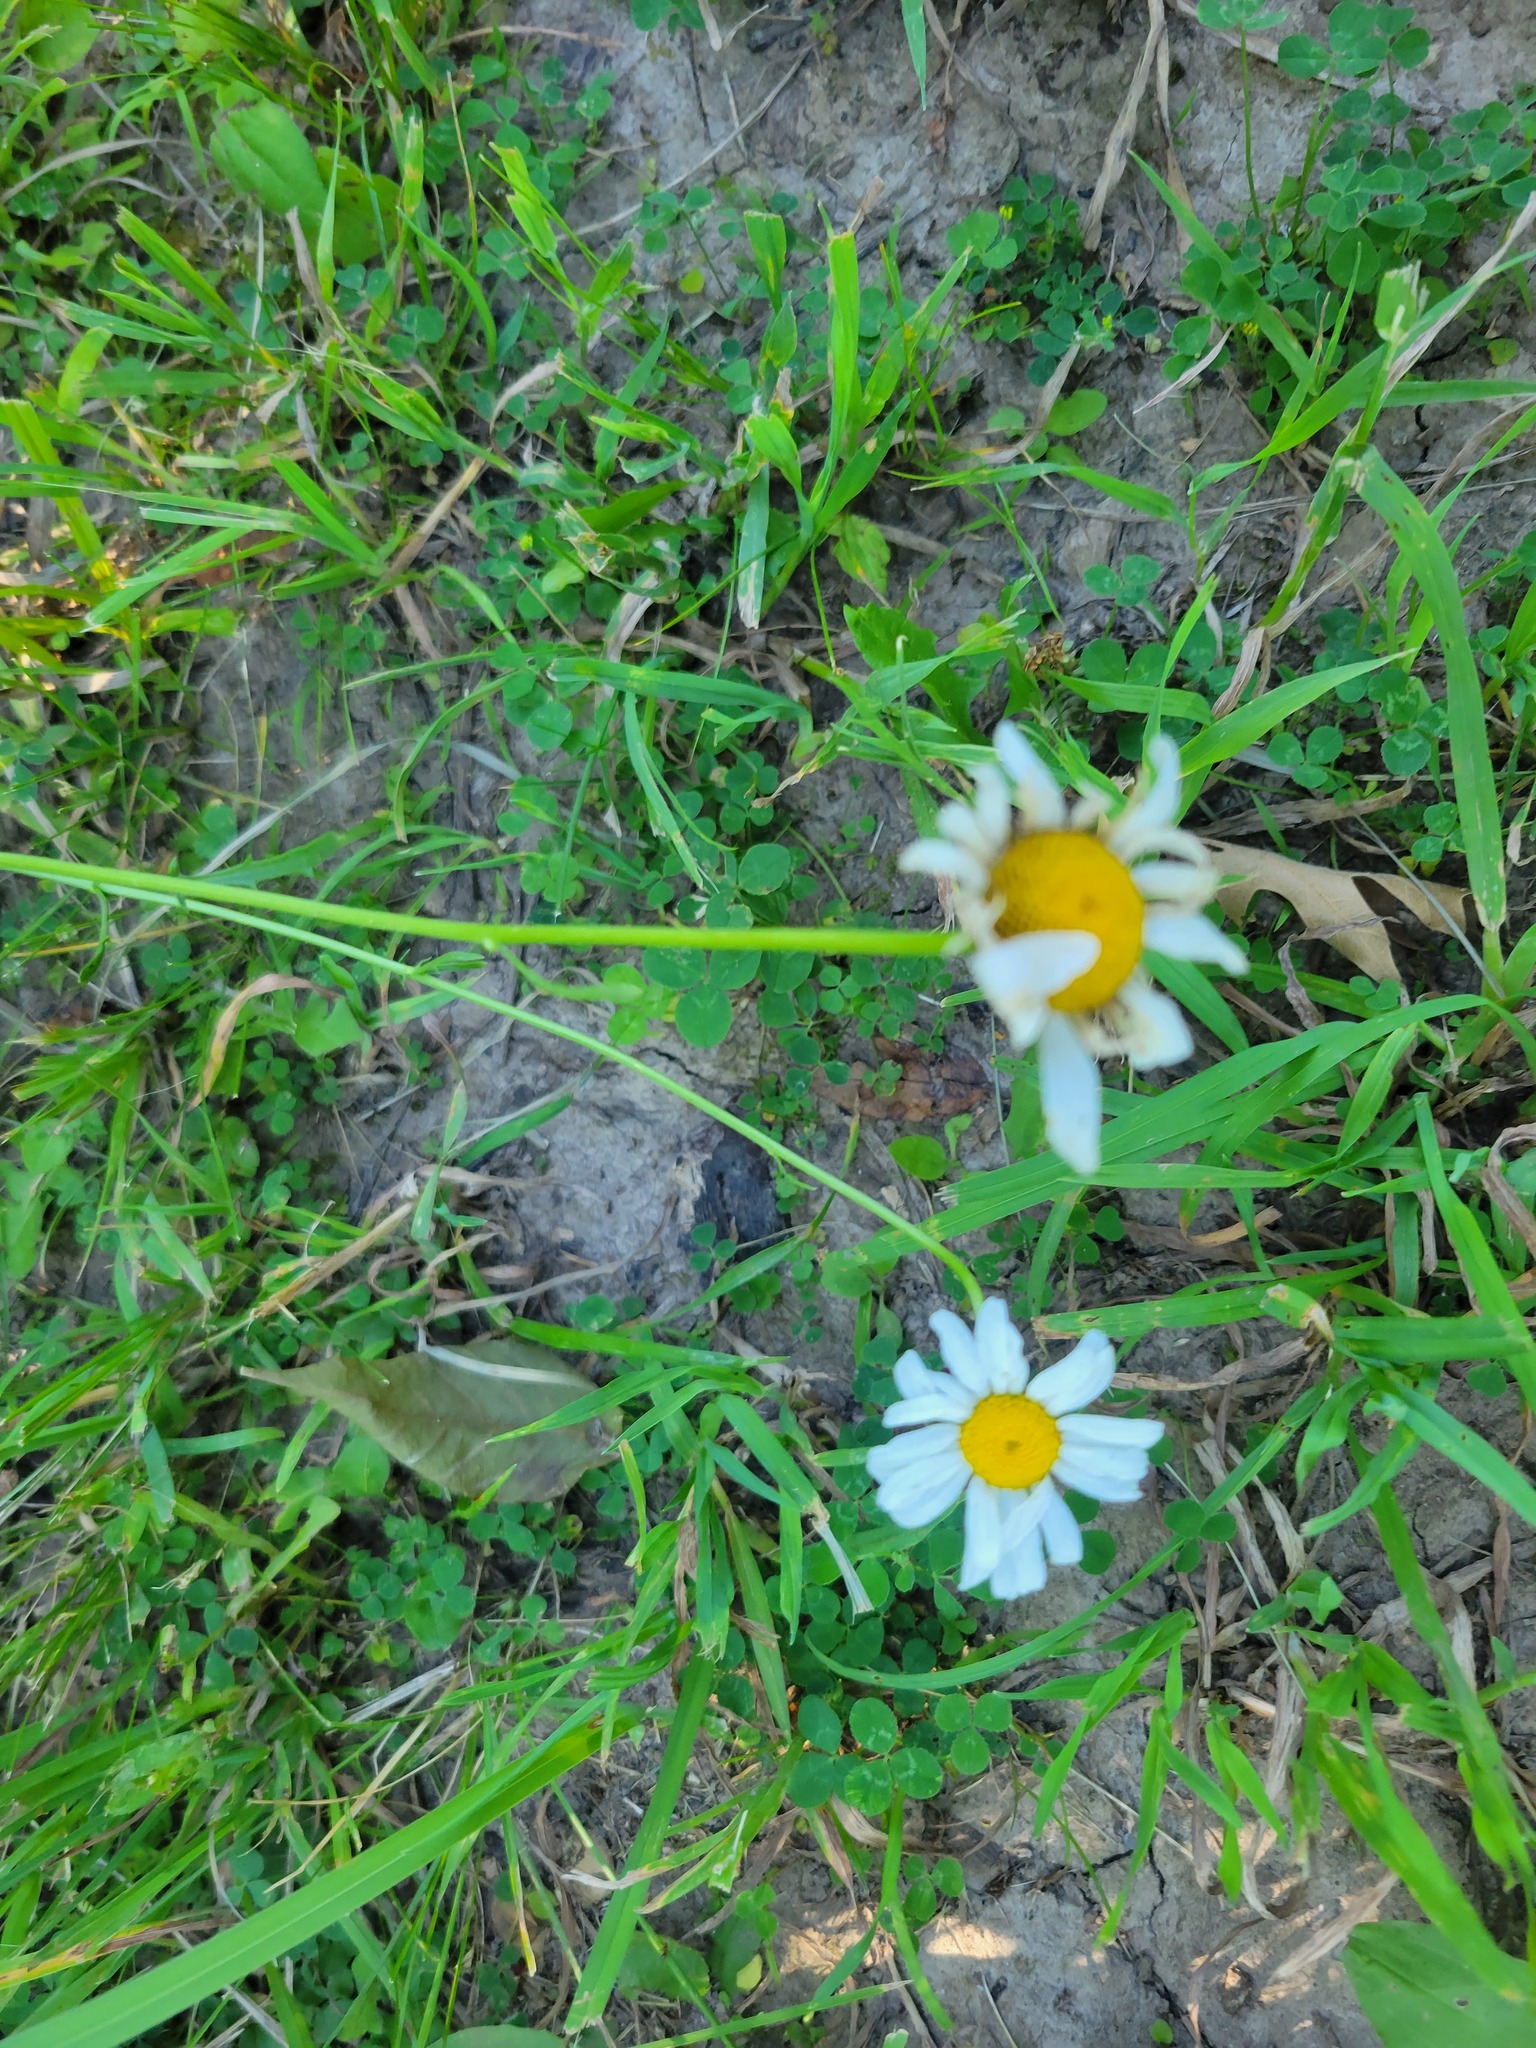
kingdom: Plantae
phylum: Tracheophyta
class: Magnoliopsida
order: Asterales
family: Asteraceae
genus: Leucanthemum
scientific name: Leucanthemum vulgare
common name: Oxeye daisy
